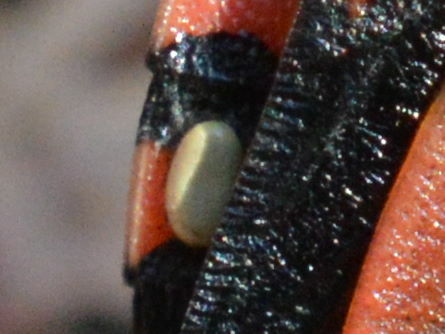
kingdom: Animalia
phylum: Arthropoda
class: Insecta
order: Hemiptera
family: Pentatomidae
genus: Graphosoma
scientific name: Graphosoma italicum
